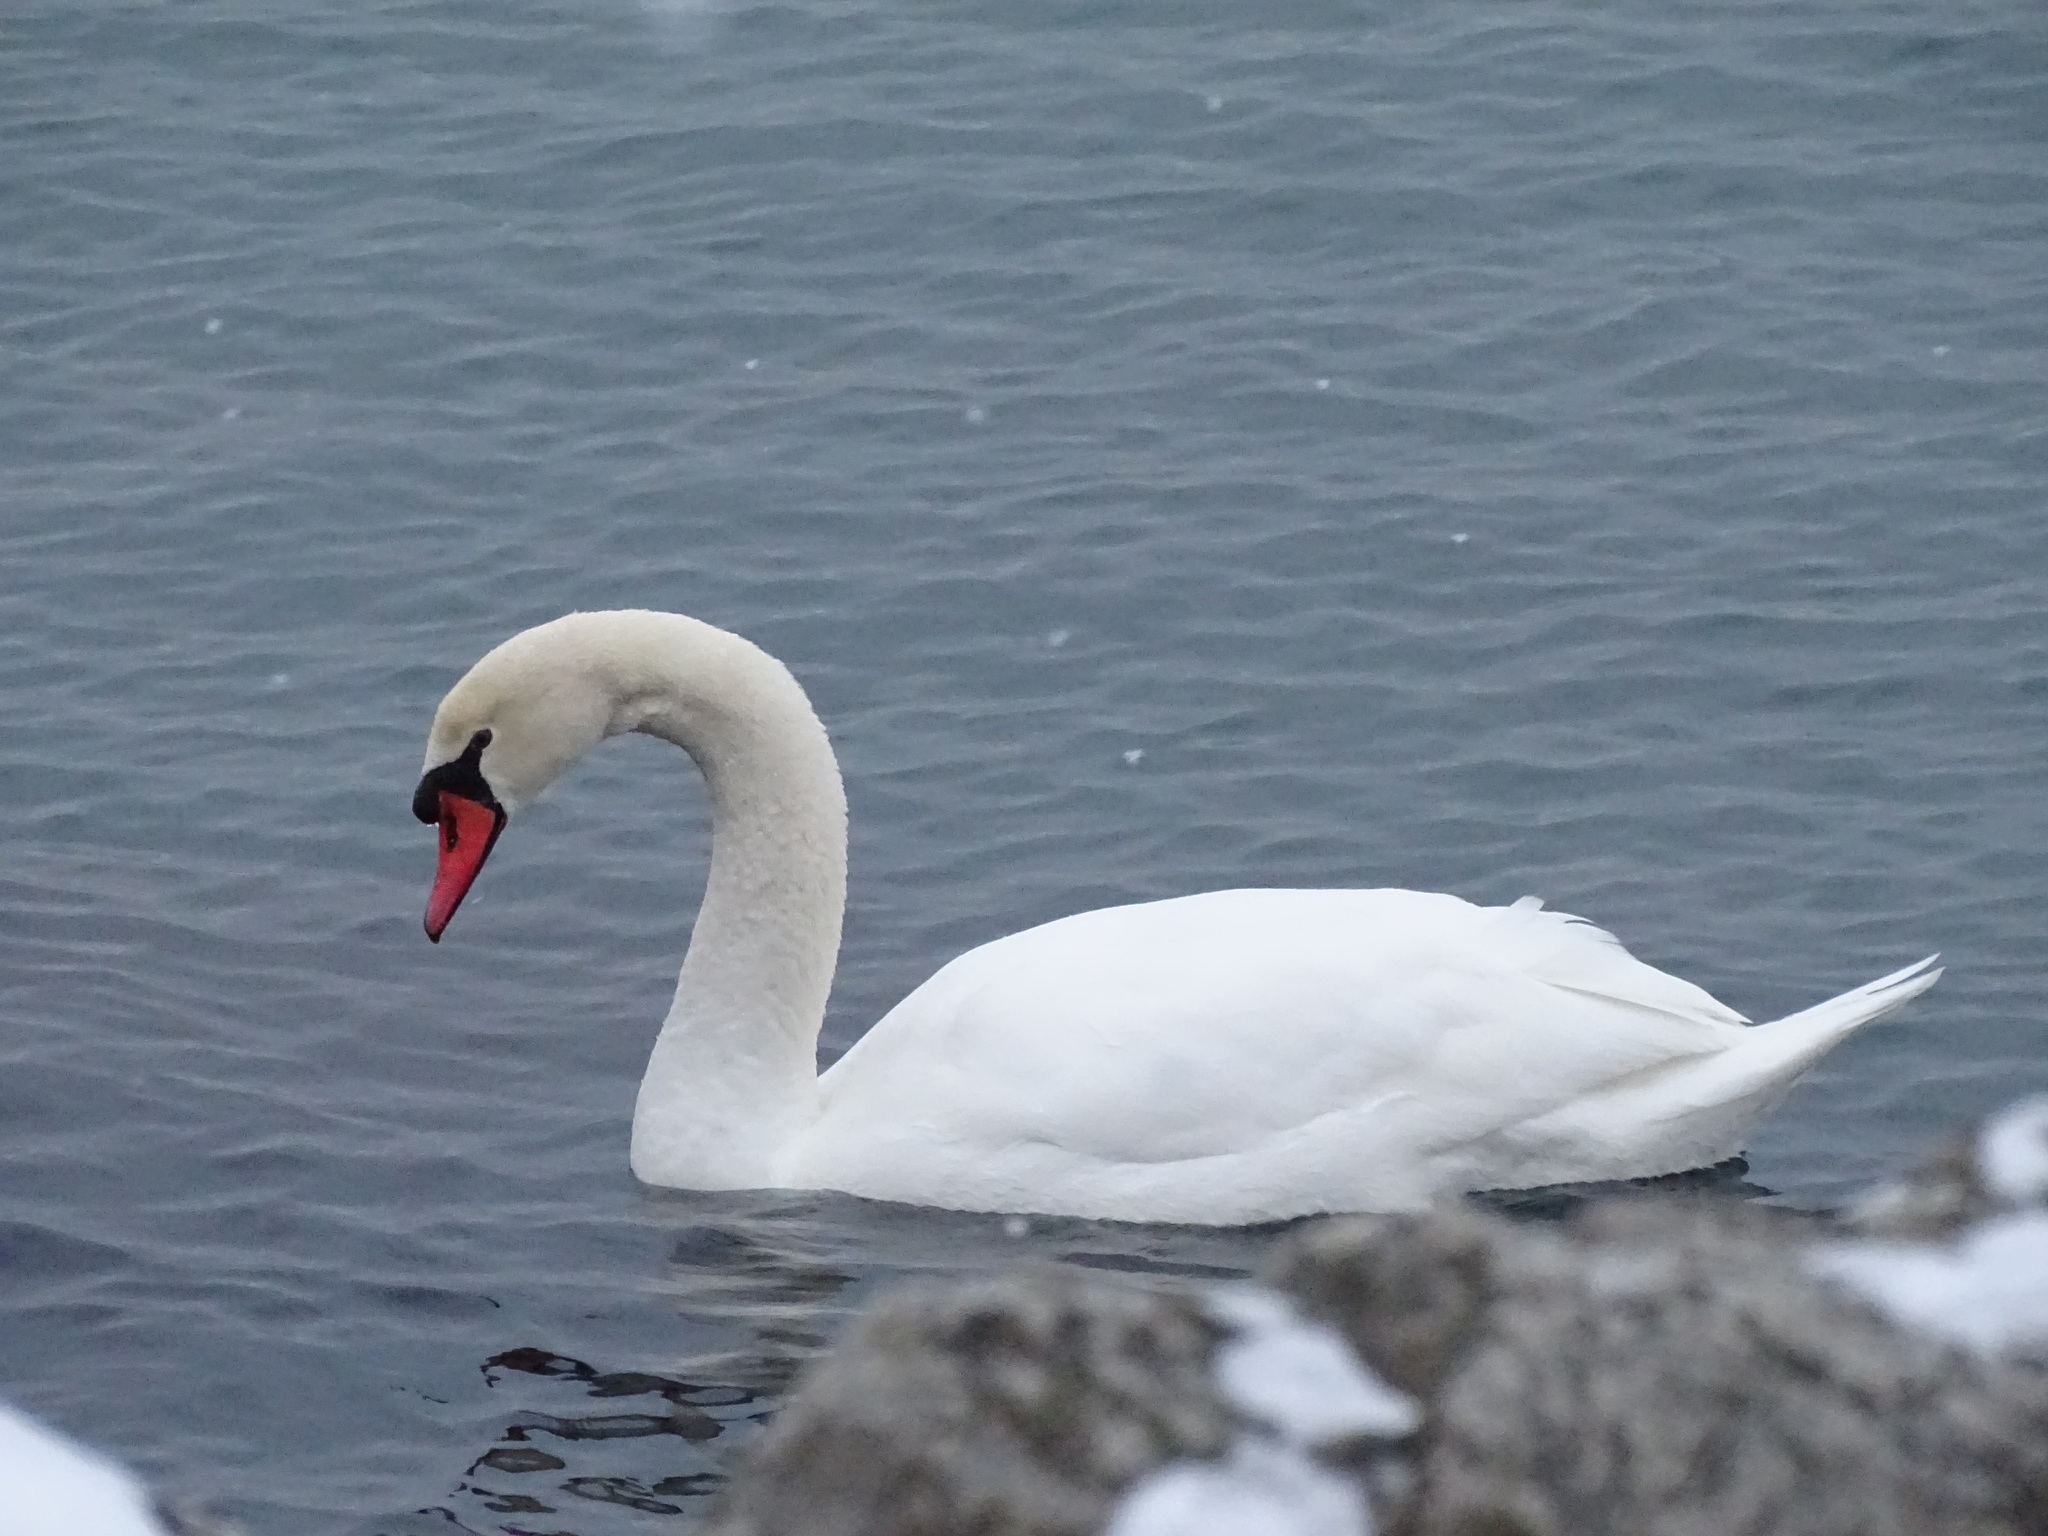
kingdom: Animalia
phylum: Chordata
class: Aves
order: Anseriformes
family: Anatidae
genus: Cygnus
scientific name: Cygnus olor
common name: Mute swan
